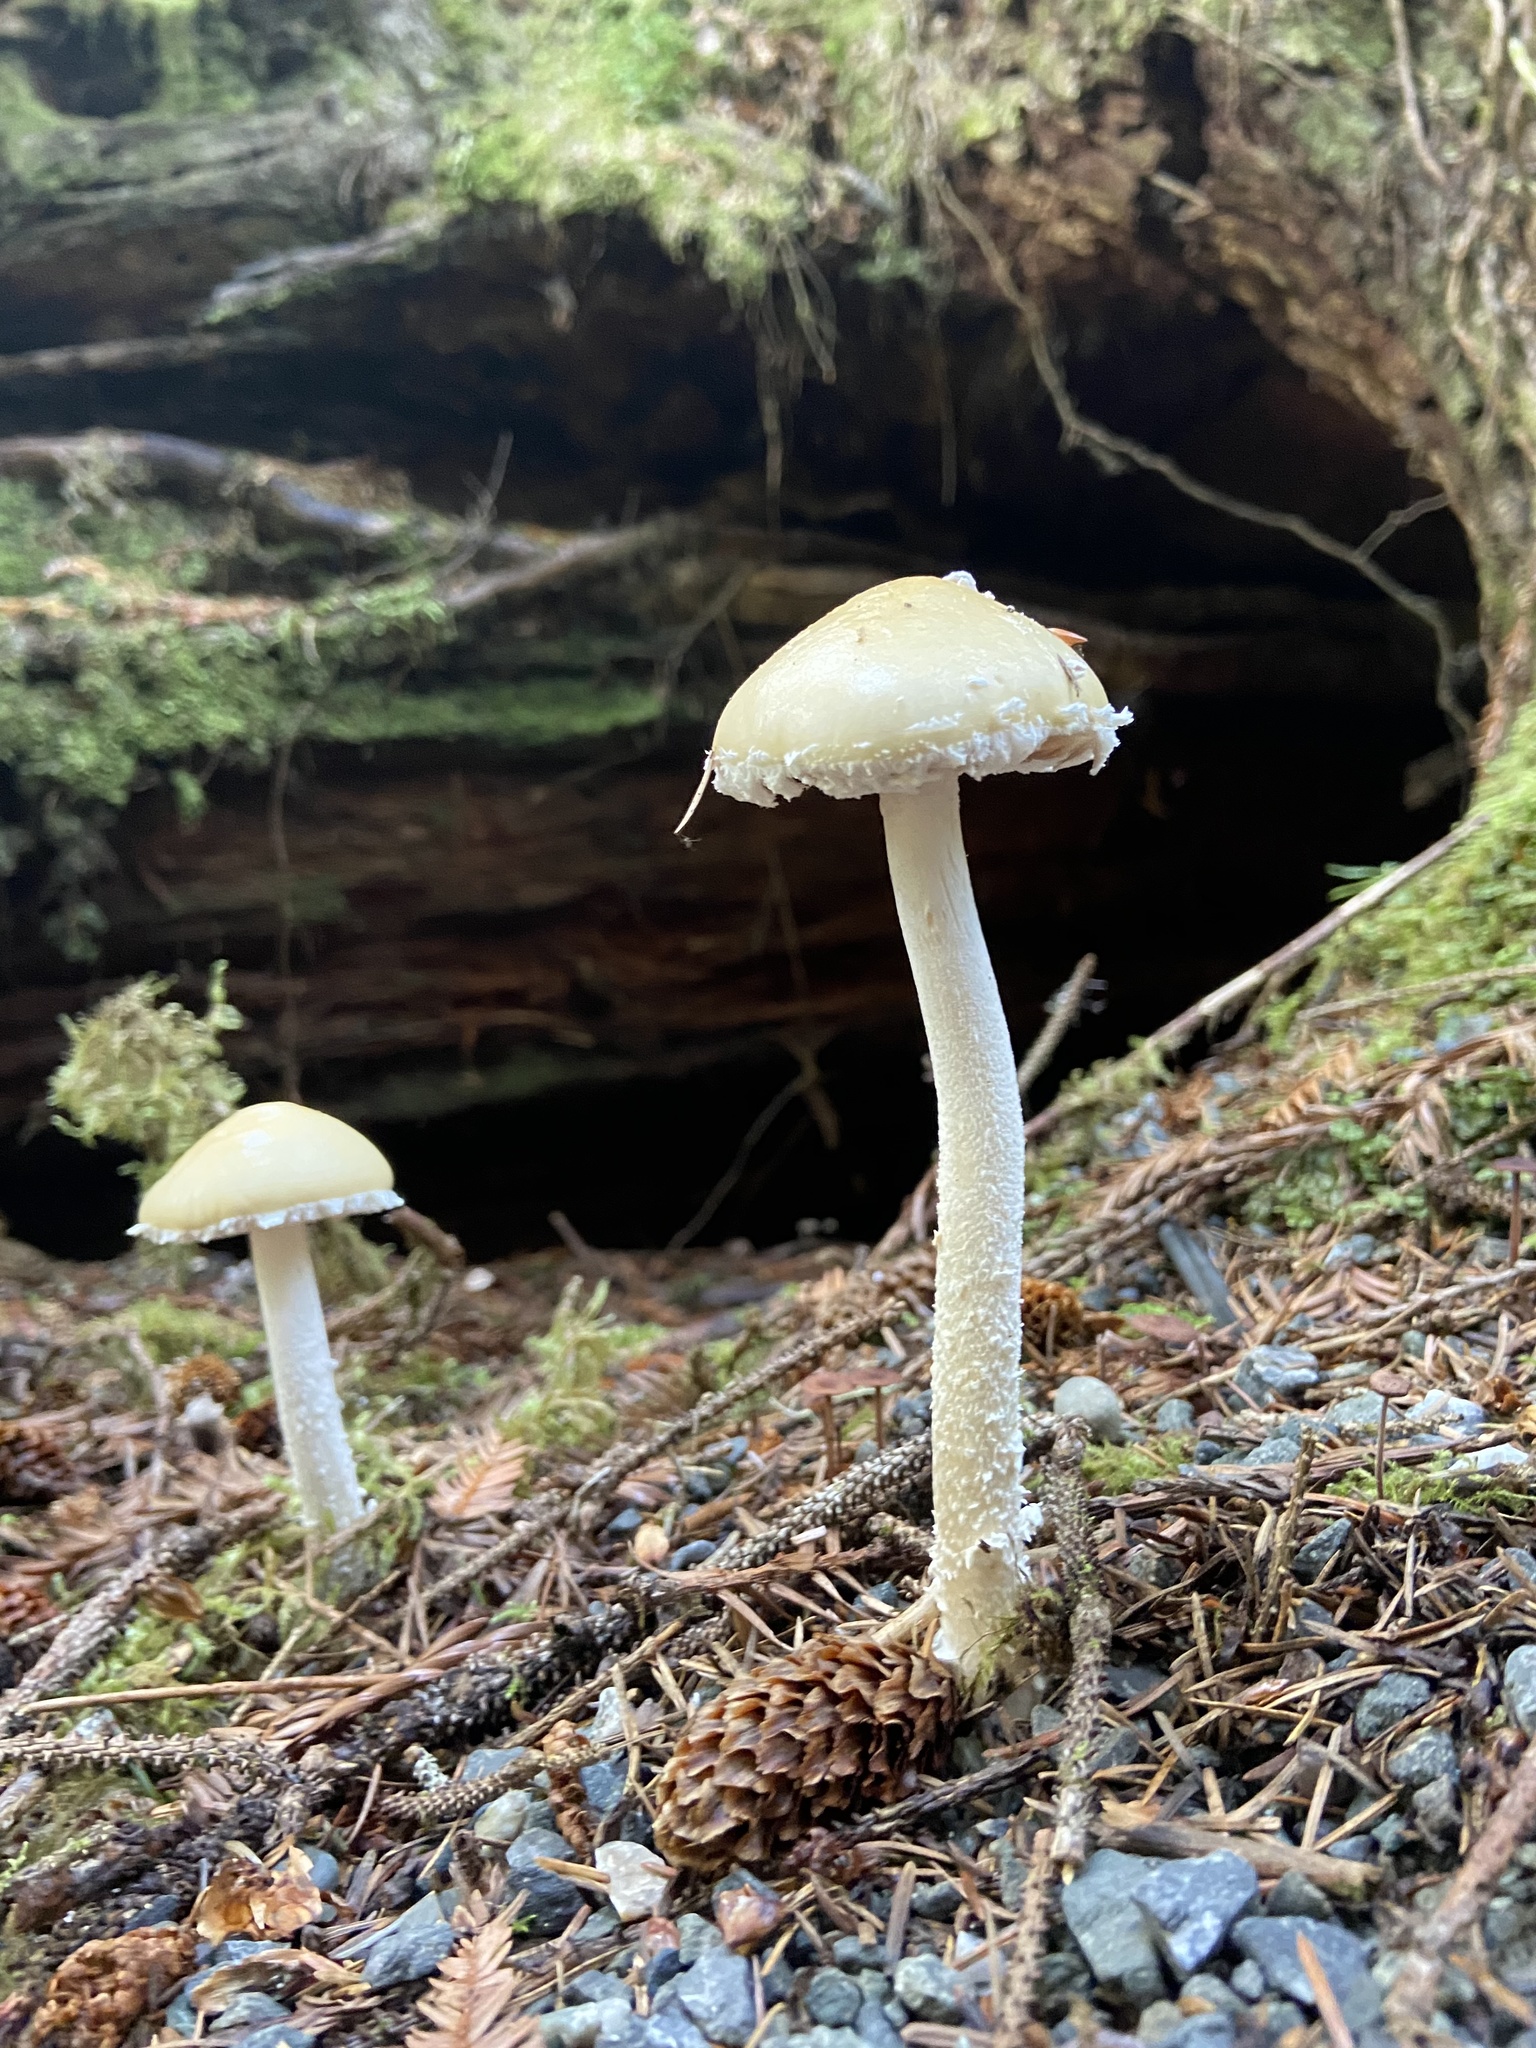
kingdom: Fungi
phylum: Basidiomycota
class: Agaricomycetes
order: Agaricales
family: Strophariaceae
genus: Stropharia
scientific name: Stropharia ambigua
